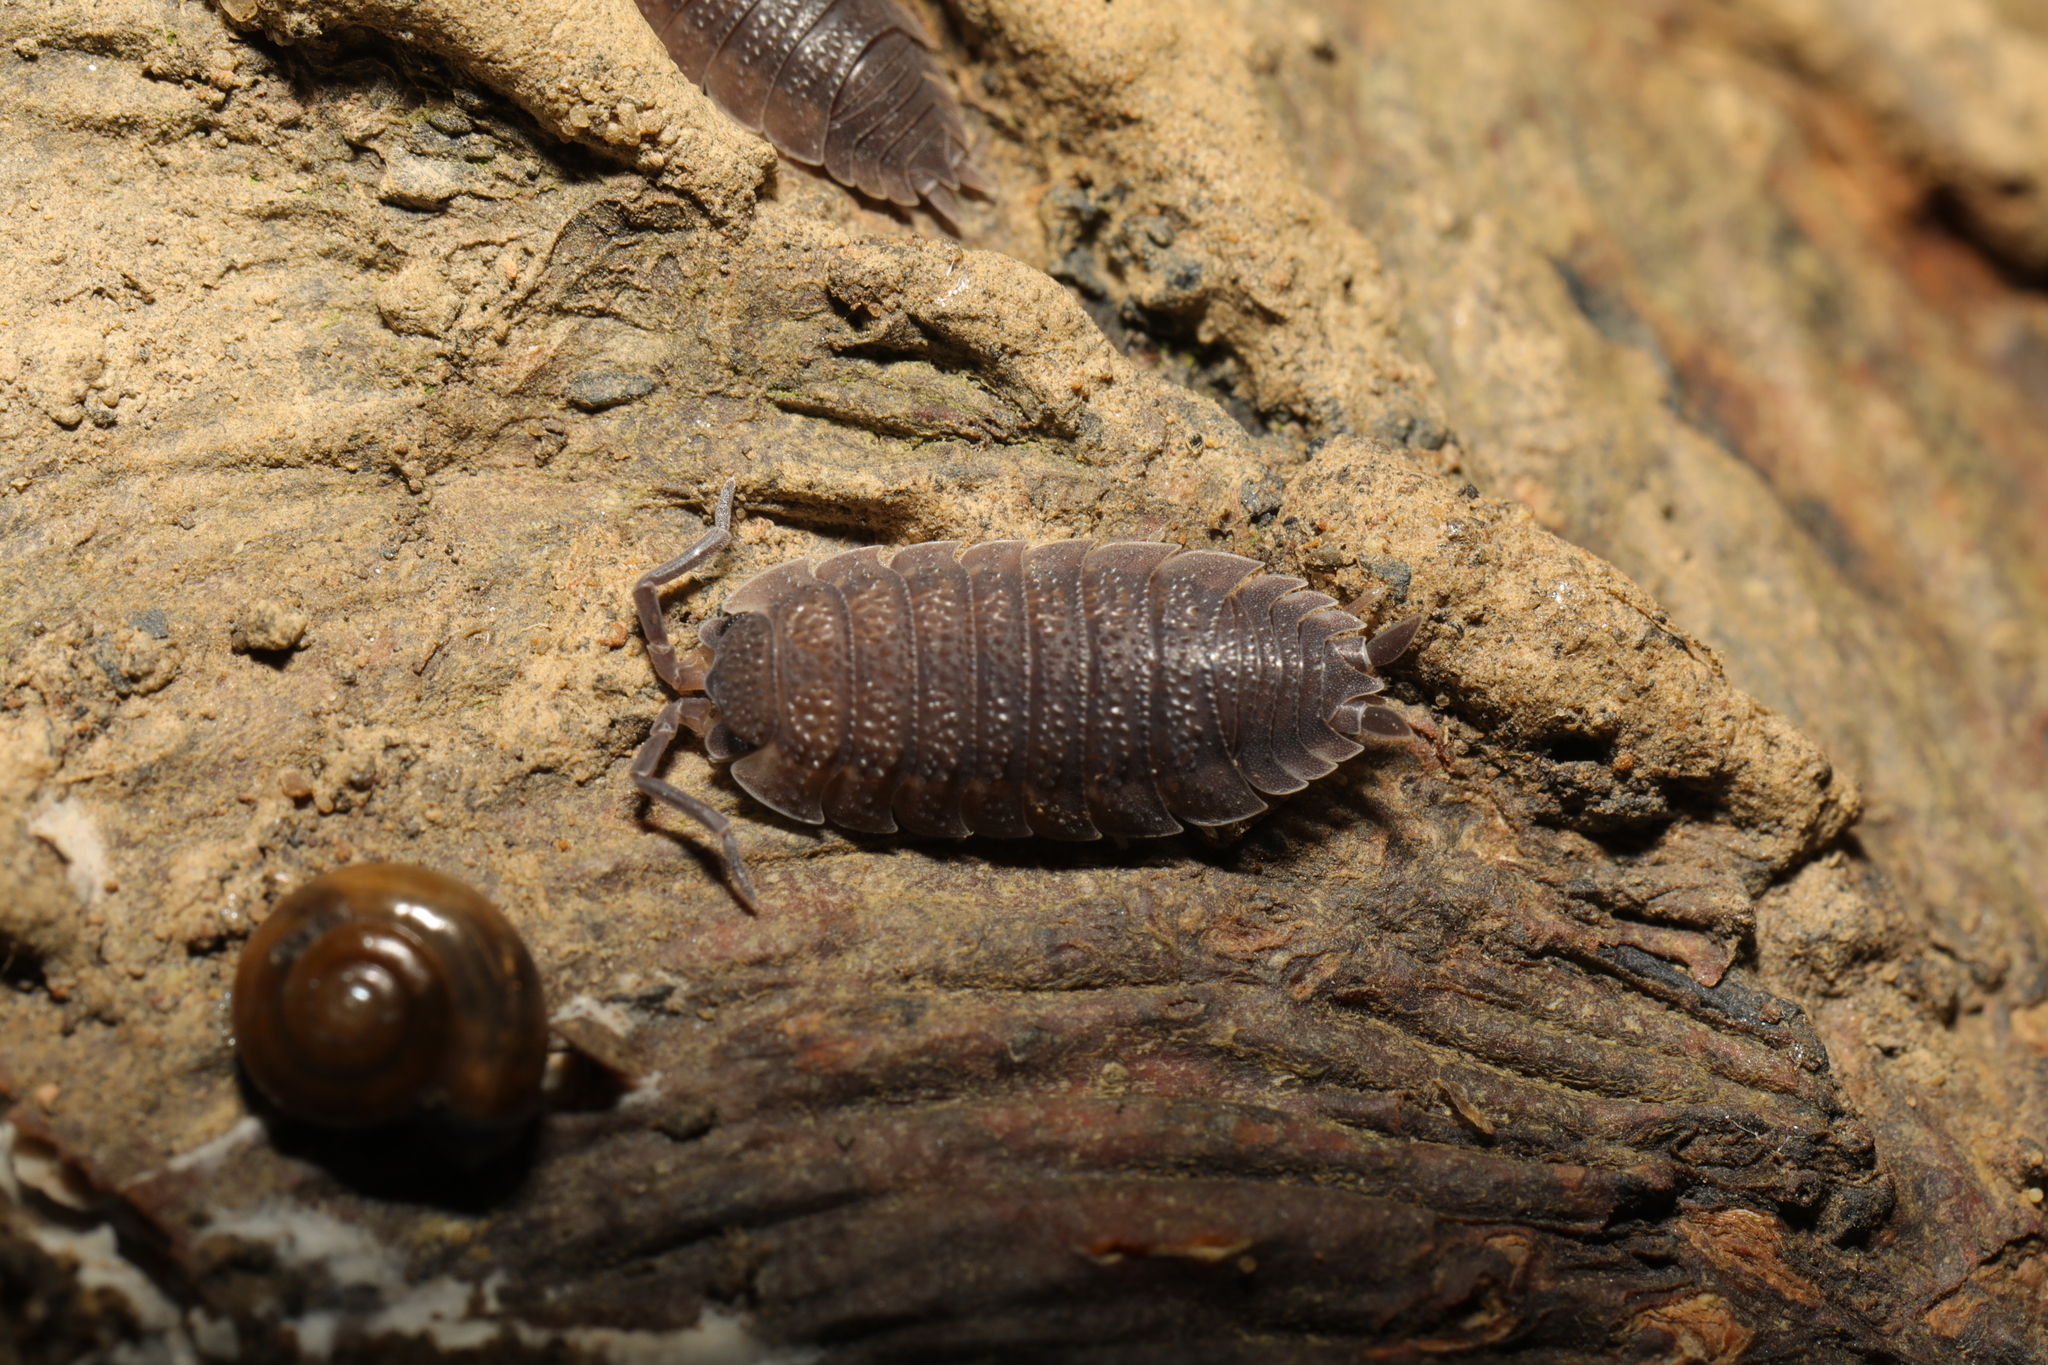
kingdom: Animalia
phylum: Arthropoda
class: Malacostraca
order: Isopoda
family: Porcellionidae
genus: Porcellio
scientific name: Porcellio scaber
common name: Common rough woodlouse
